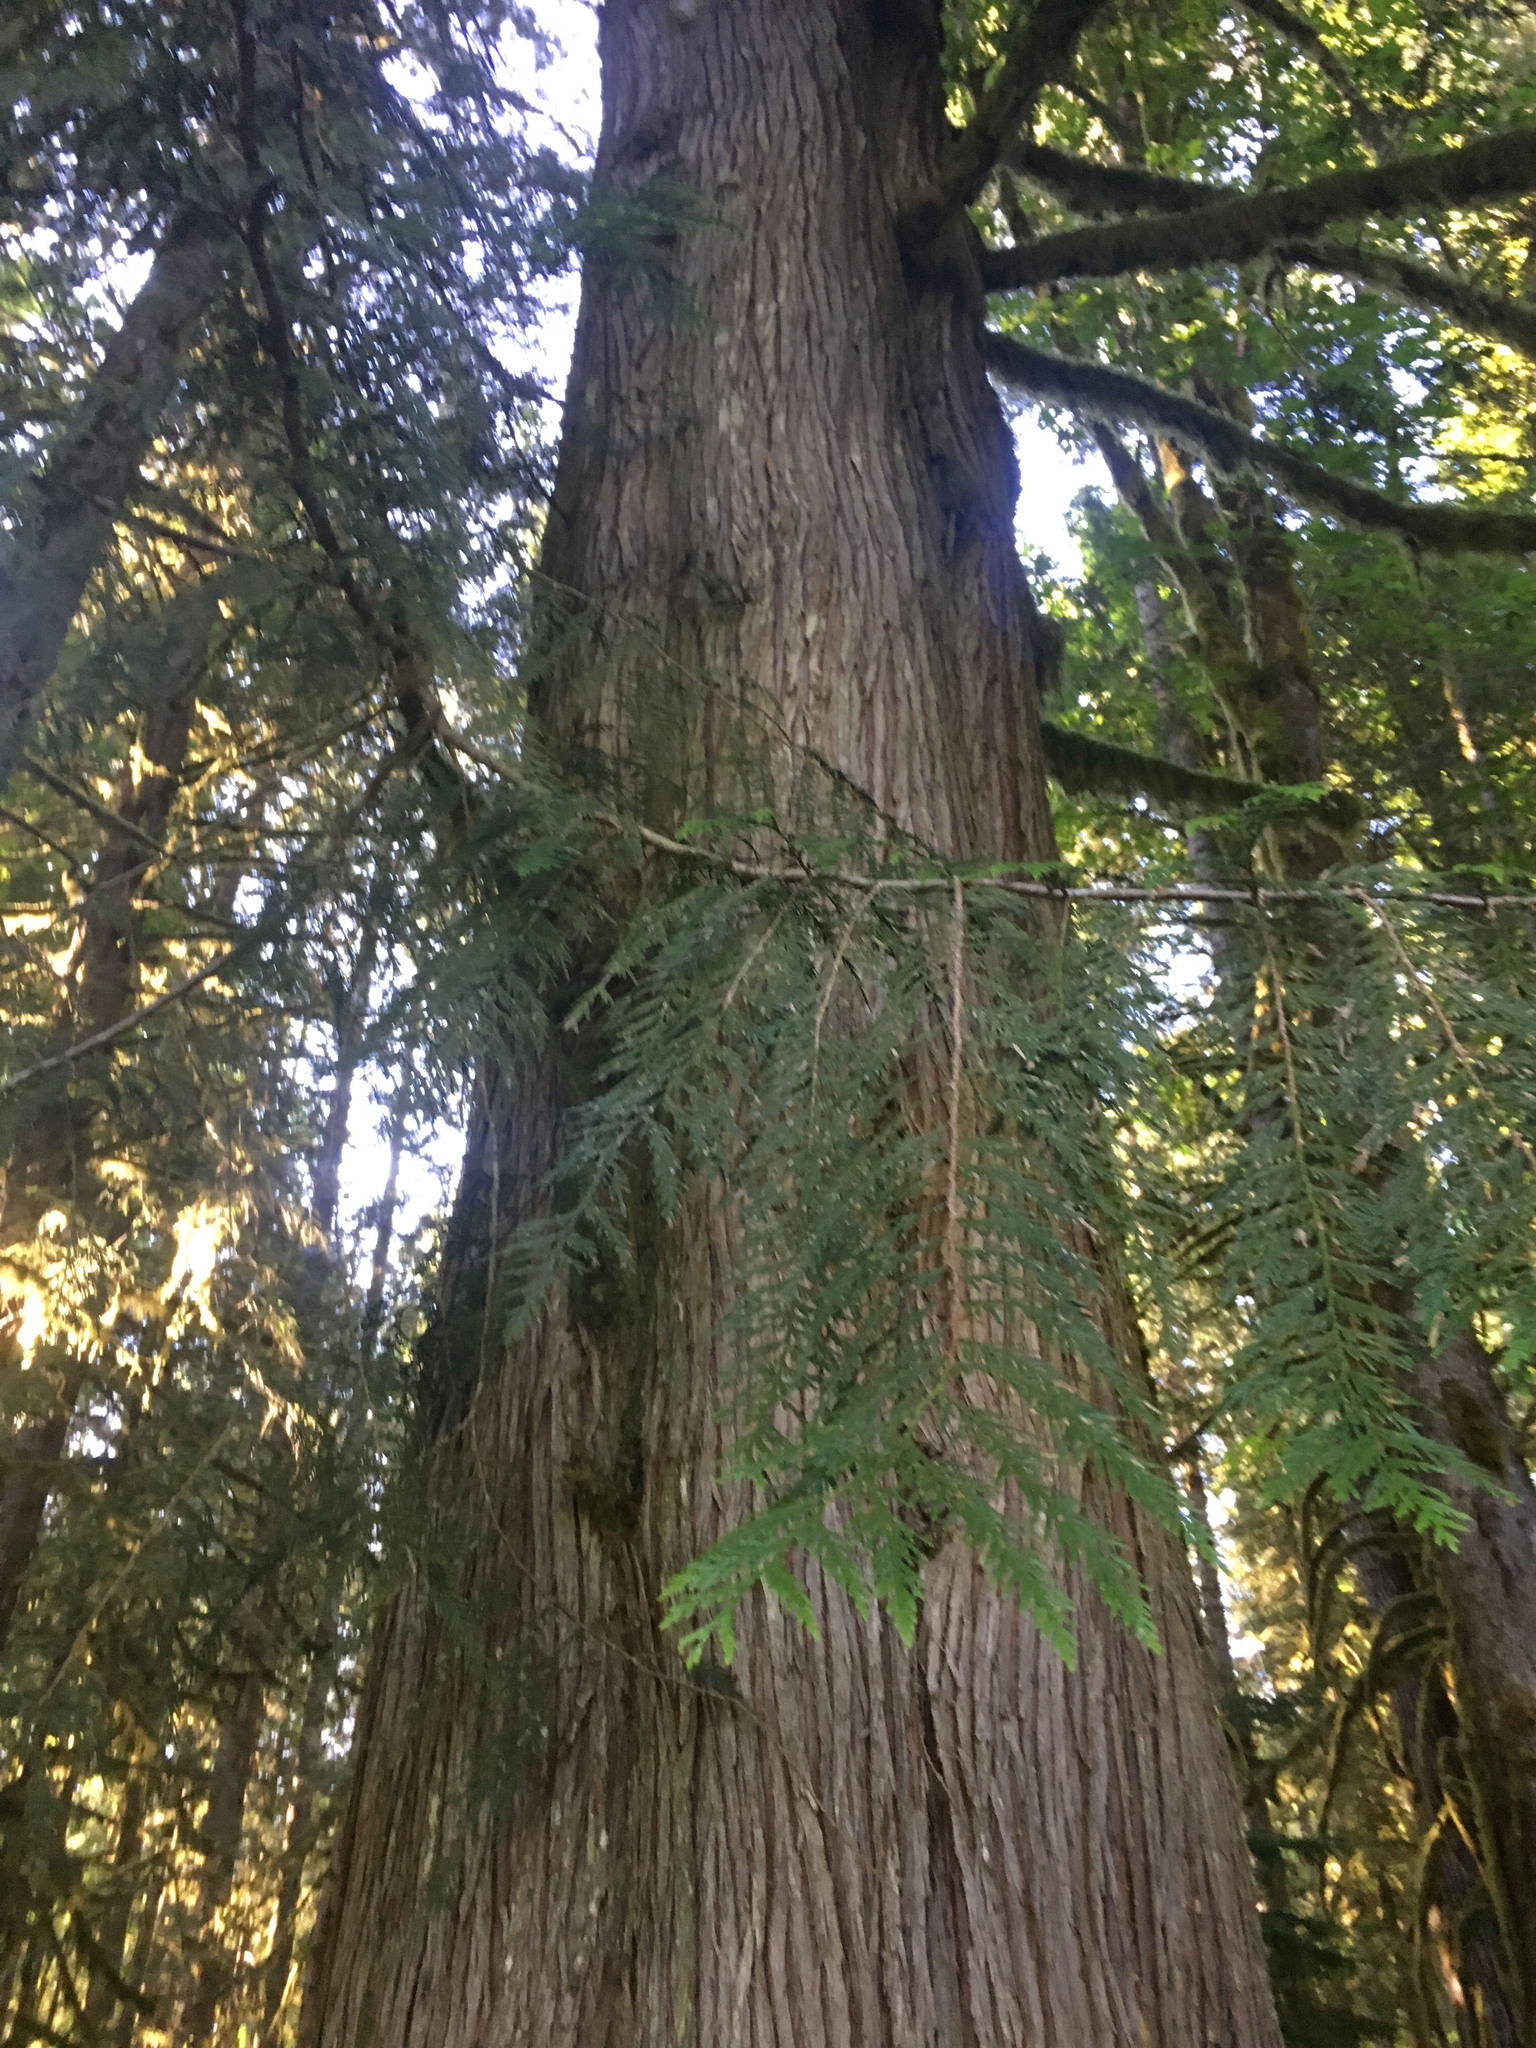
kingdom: Plantae
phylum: Tracheophyta
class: Pinopsida
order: Pinales
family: Cupressaceae
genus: Thuja
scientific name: Thuja plicata
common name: Western red-cedar
